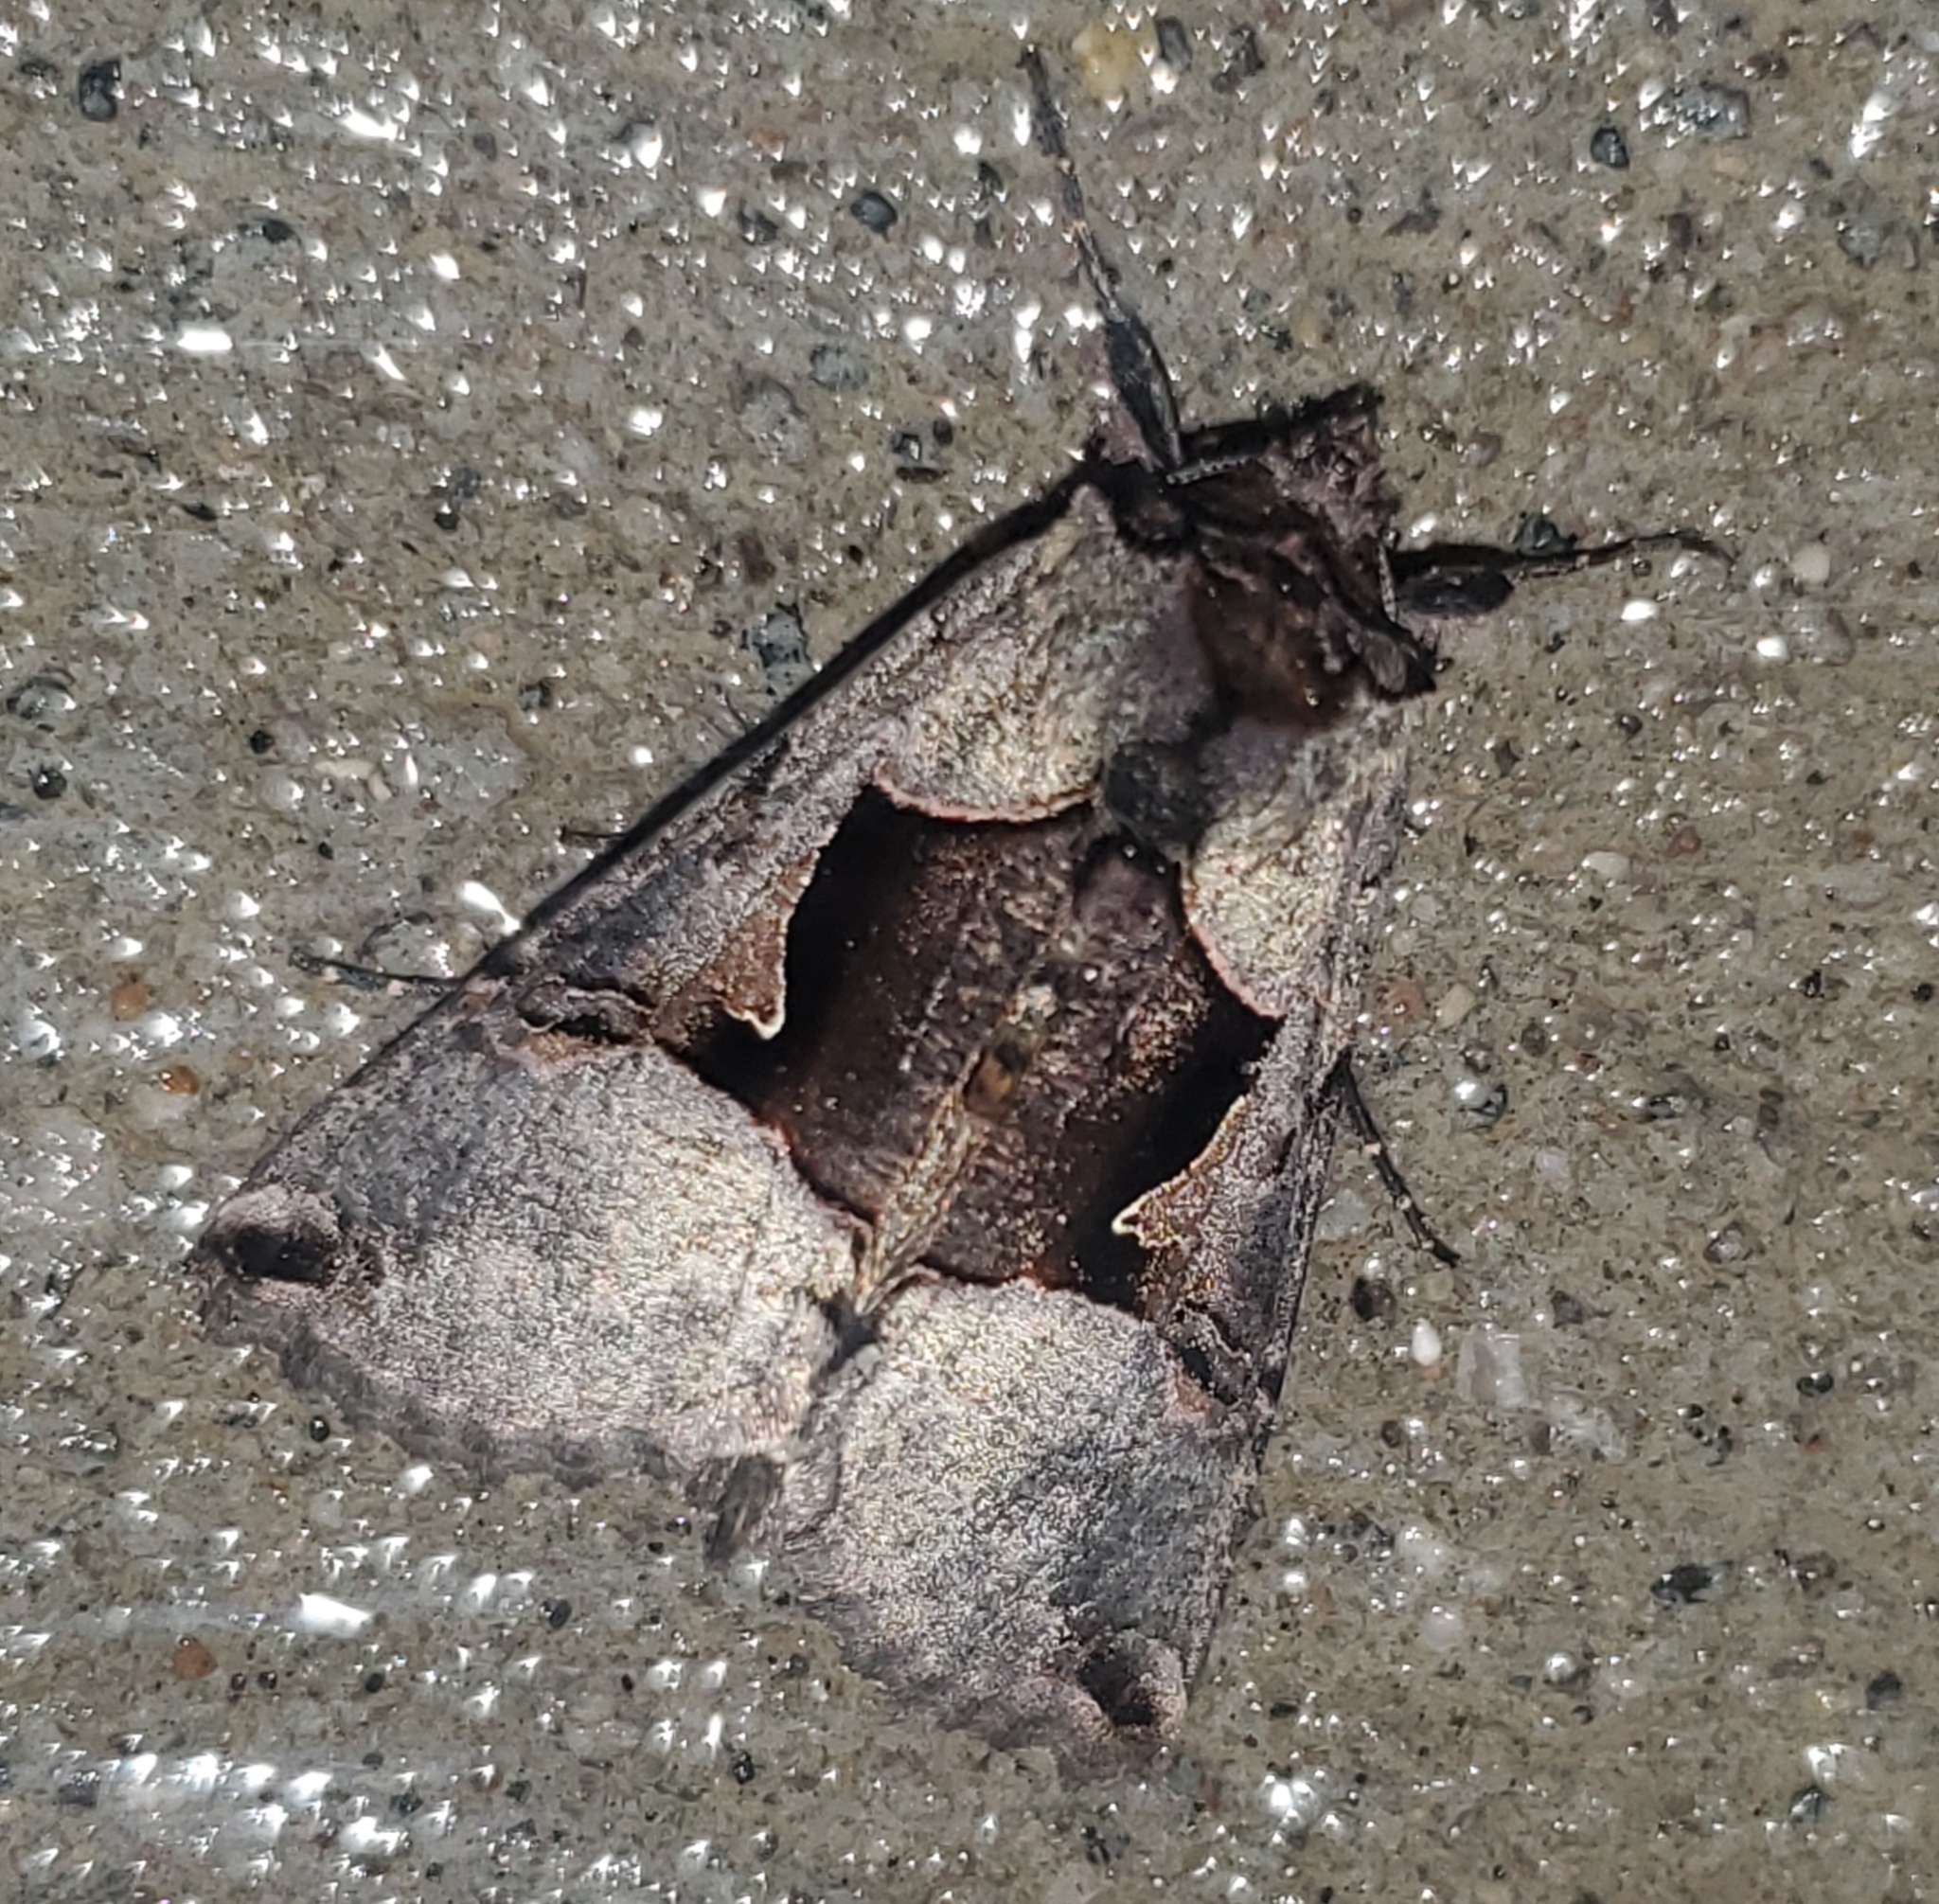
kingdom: Animalia
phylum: Arthropoda
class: Insecta
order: Lepidoptera
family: Noctuidae
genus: Autographa
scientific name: Autographa ampla
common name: Large looper moth
